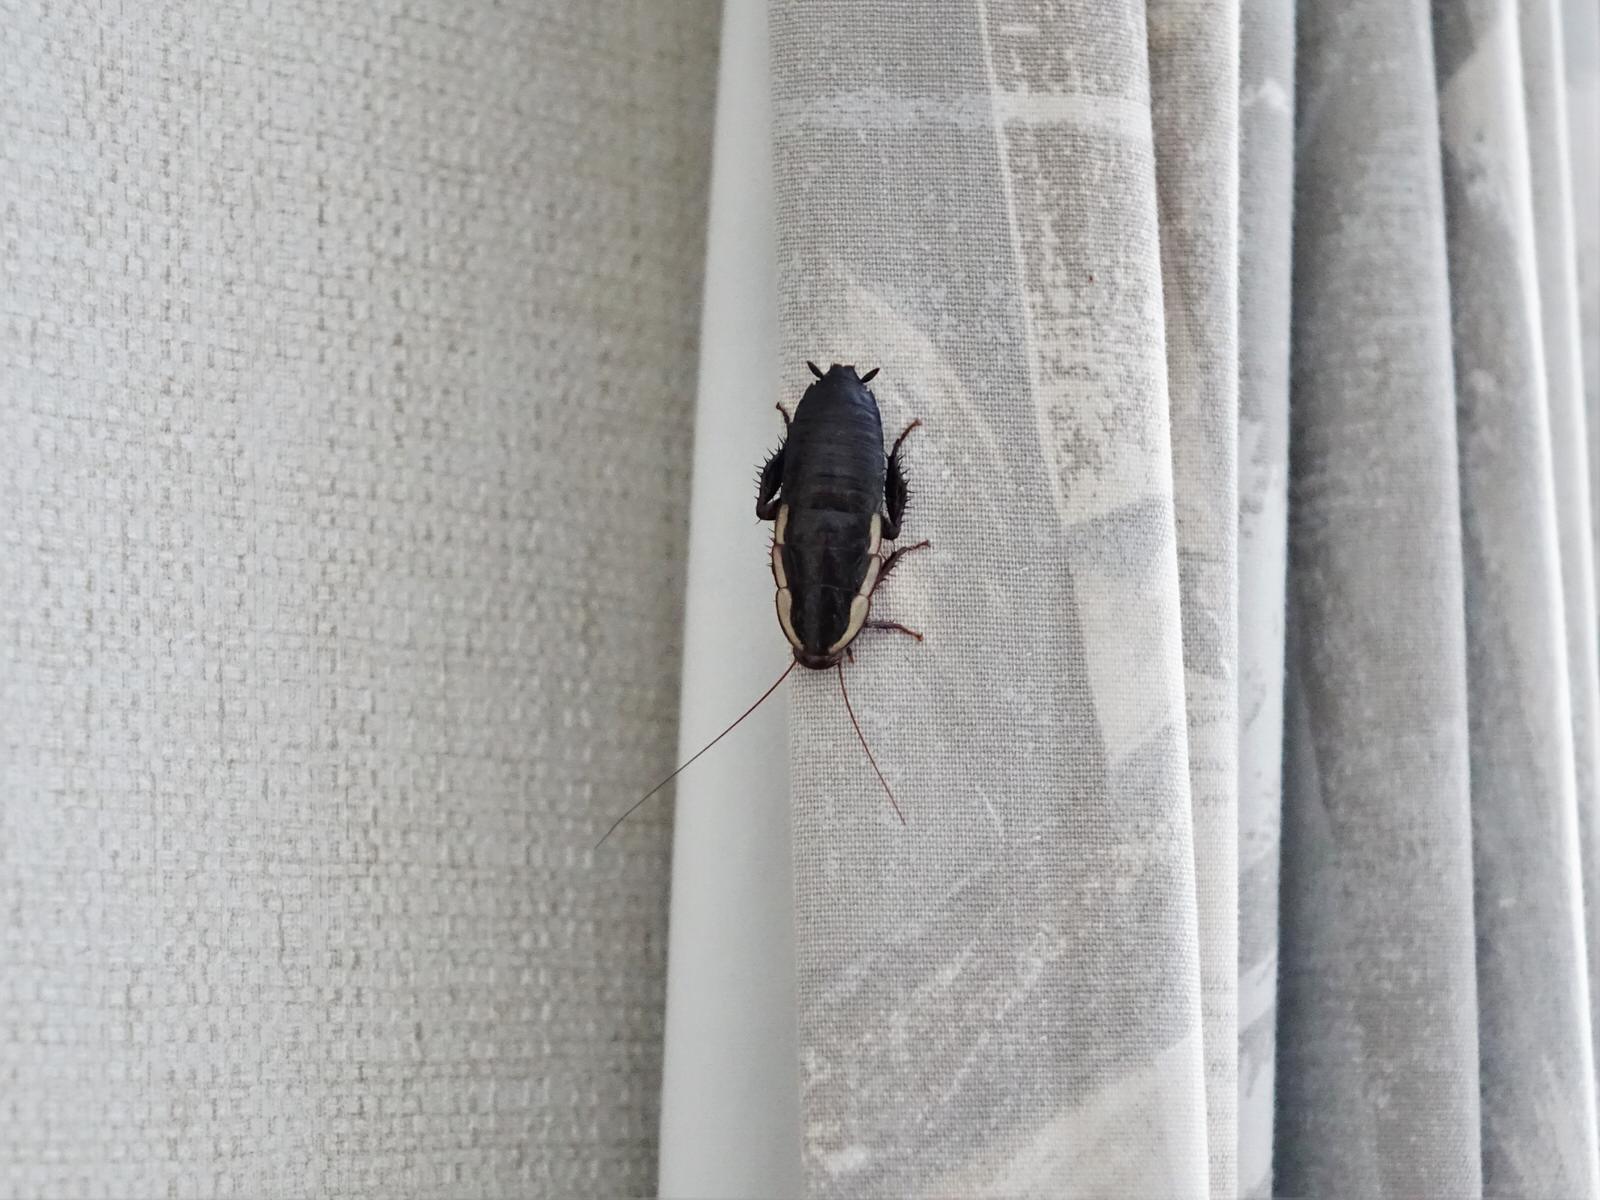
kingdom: Animalia
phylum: Arthropoda
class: Insecta
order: Blattodea
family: Blattidae
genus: Drymaplaneta
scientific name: Drymaplaneta semivitta
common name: Gisborne cockroach
